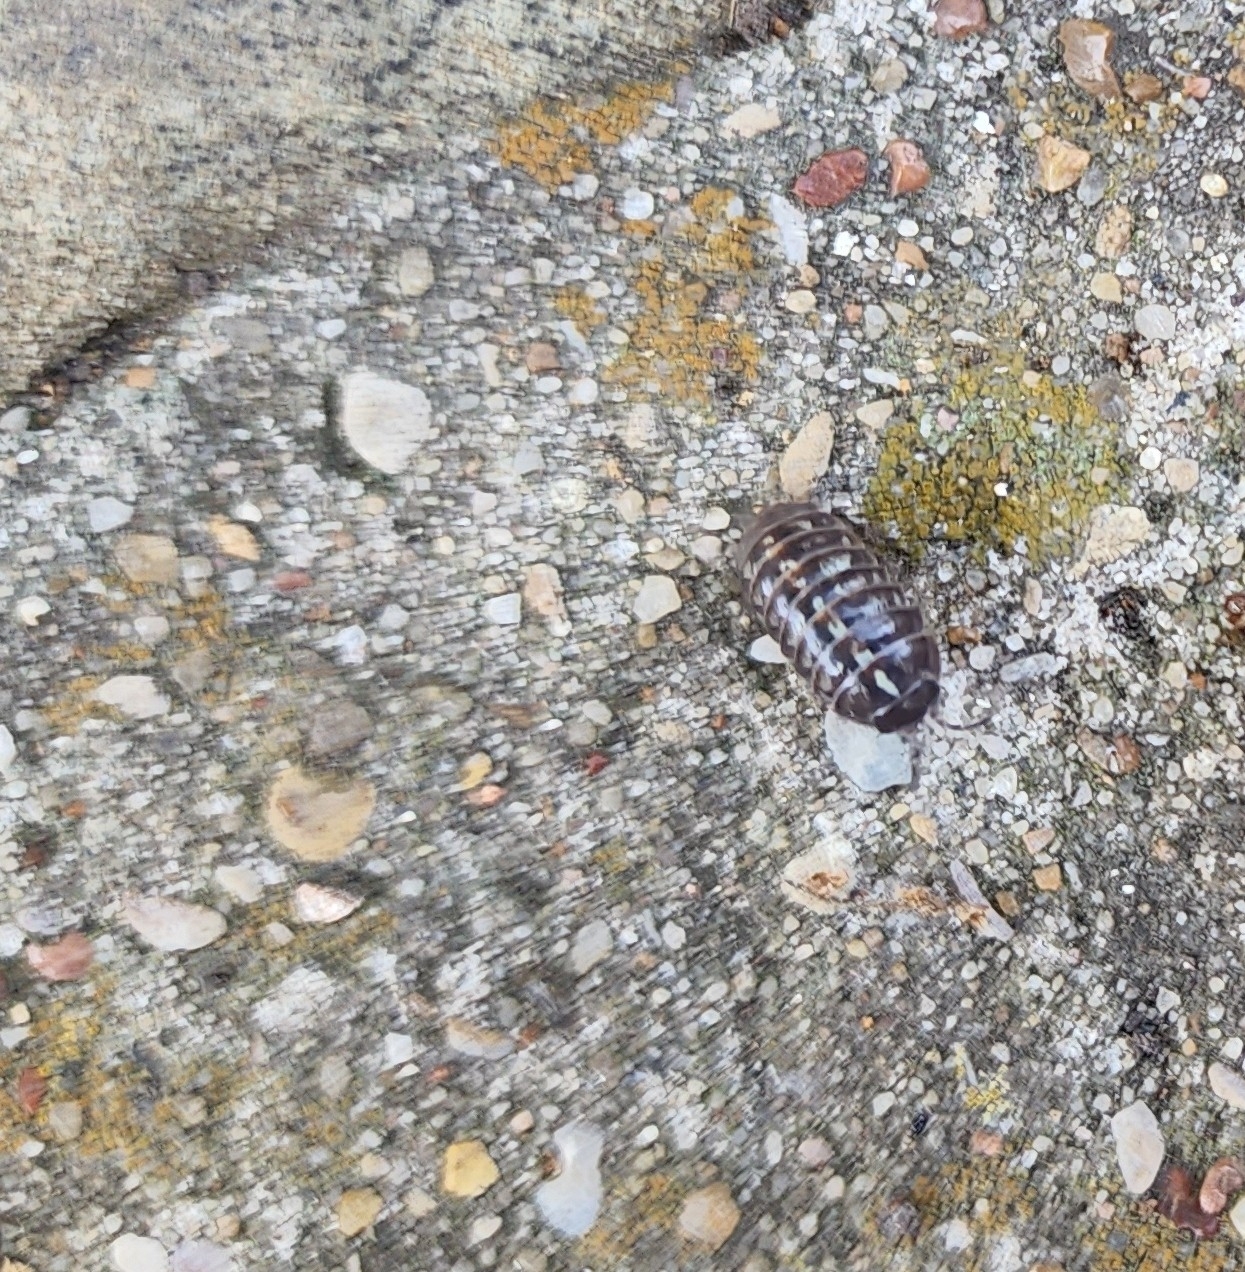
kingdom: Animalia
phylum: Arthropoda
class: Malacostraca
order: Isopoda
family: Armadillidiidae
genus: Armadillidium
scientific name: Armadillidium vulgare
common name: Common pill woodlouse
